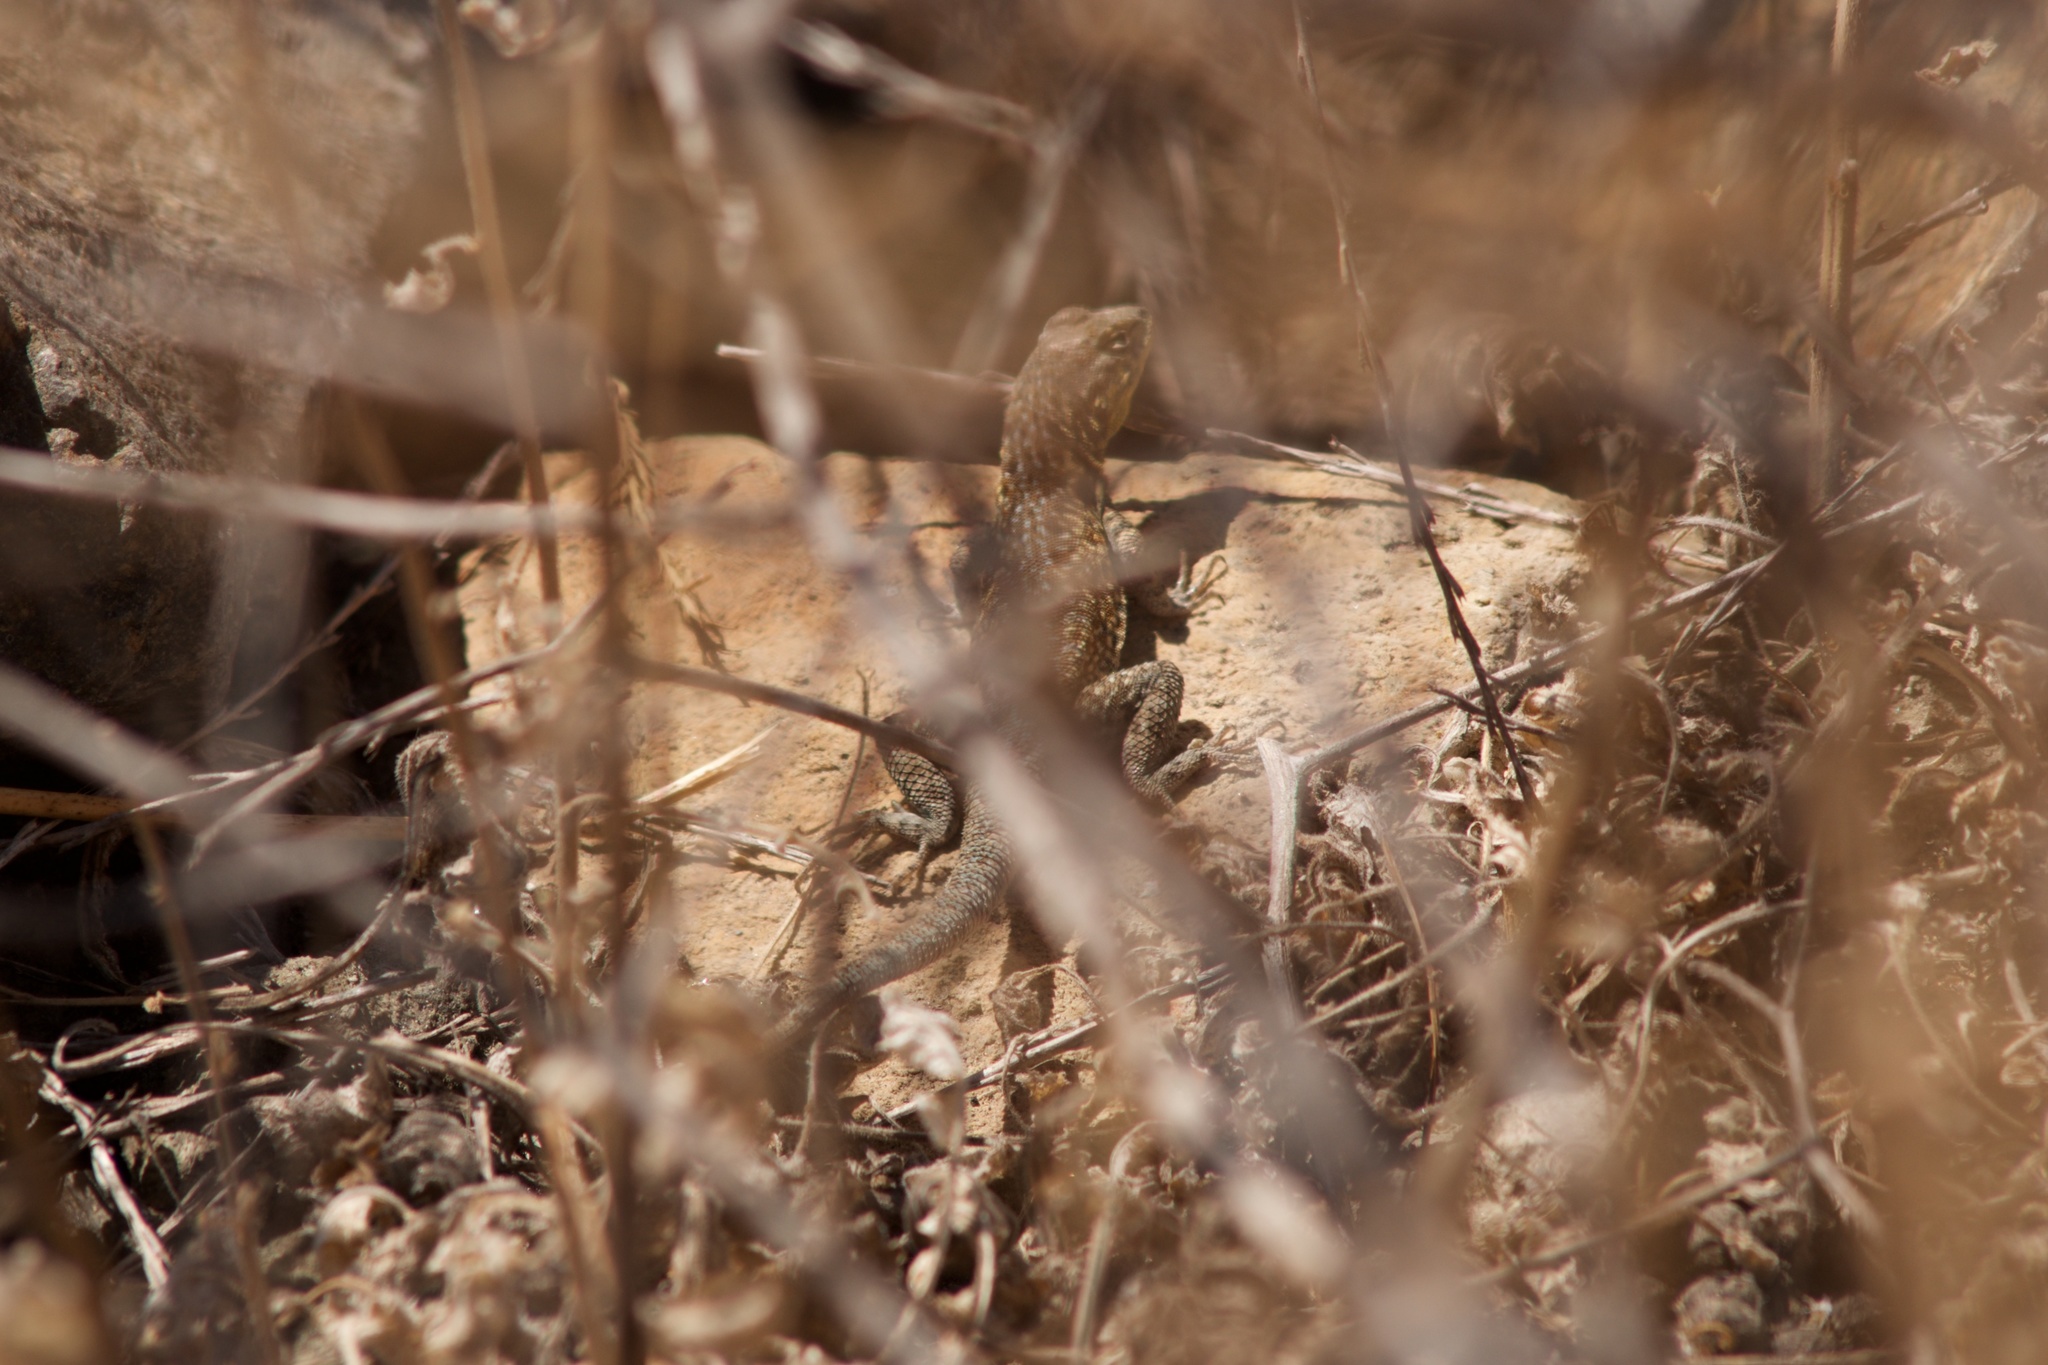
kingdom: Animalia
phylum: Chordata
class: Squamata
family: Phrynosomatidae
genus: Uta
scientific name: Uta stansburiana
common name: Side-blotched lizard
